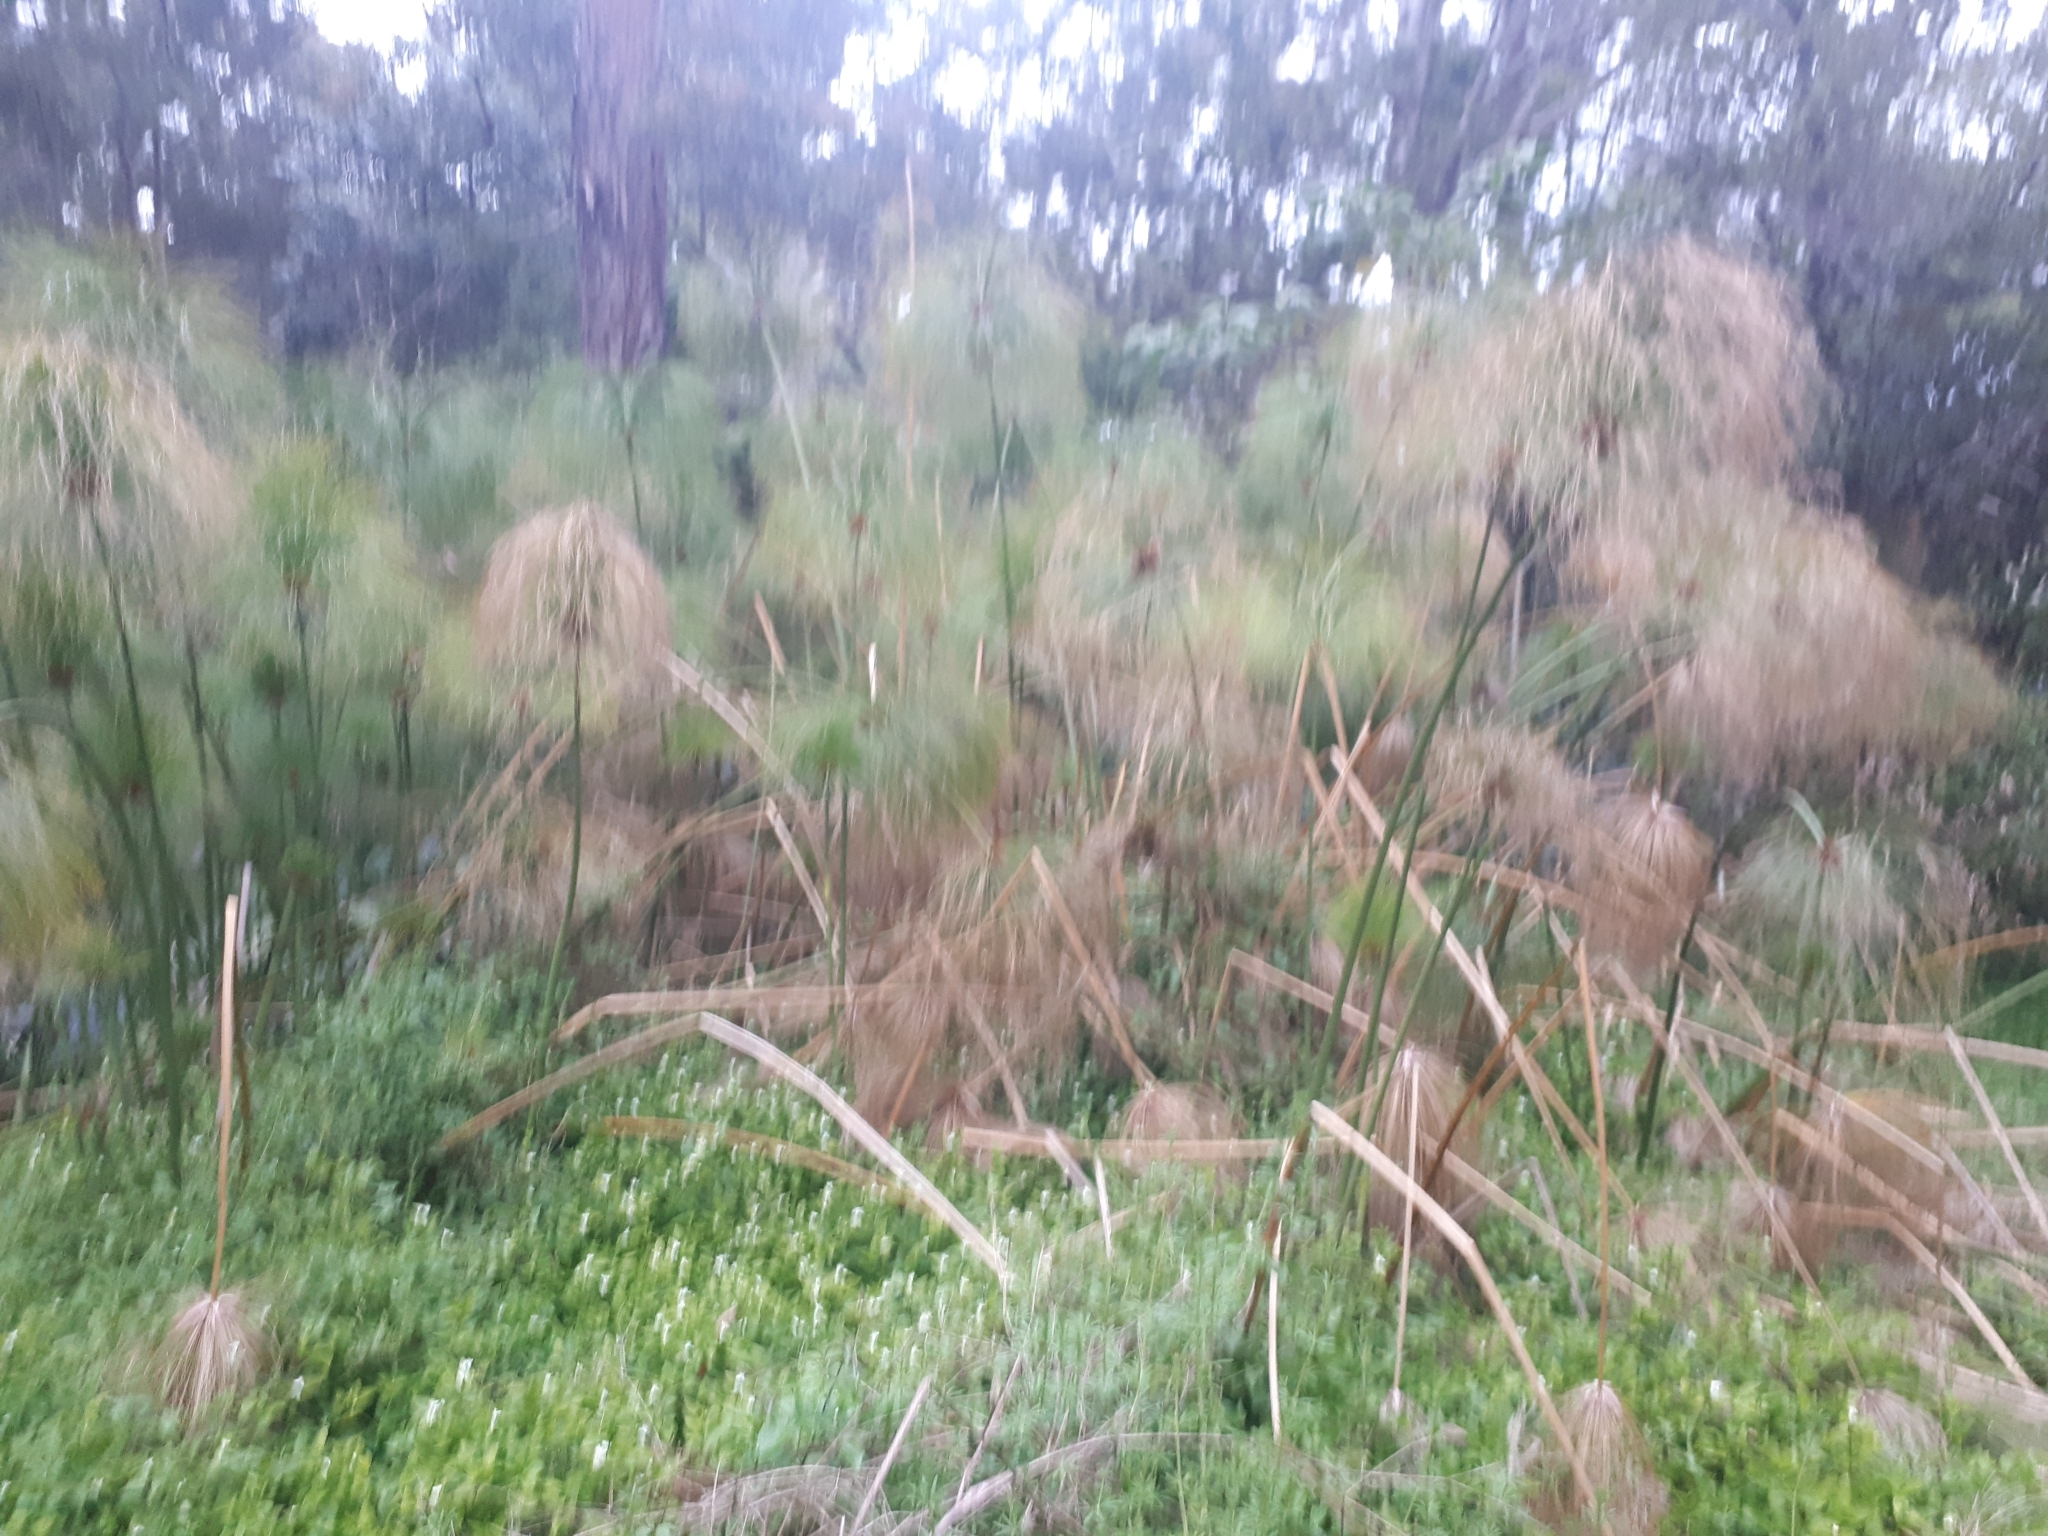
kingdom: Plantae
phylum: Tracheophyta
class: Liliopsida
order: Poales
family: Cyperaceae
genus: Cyperus
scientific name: Cyperus papyrus
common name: Papyrus
